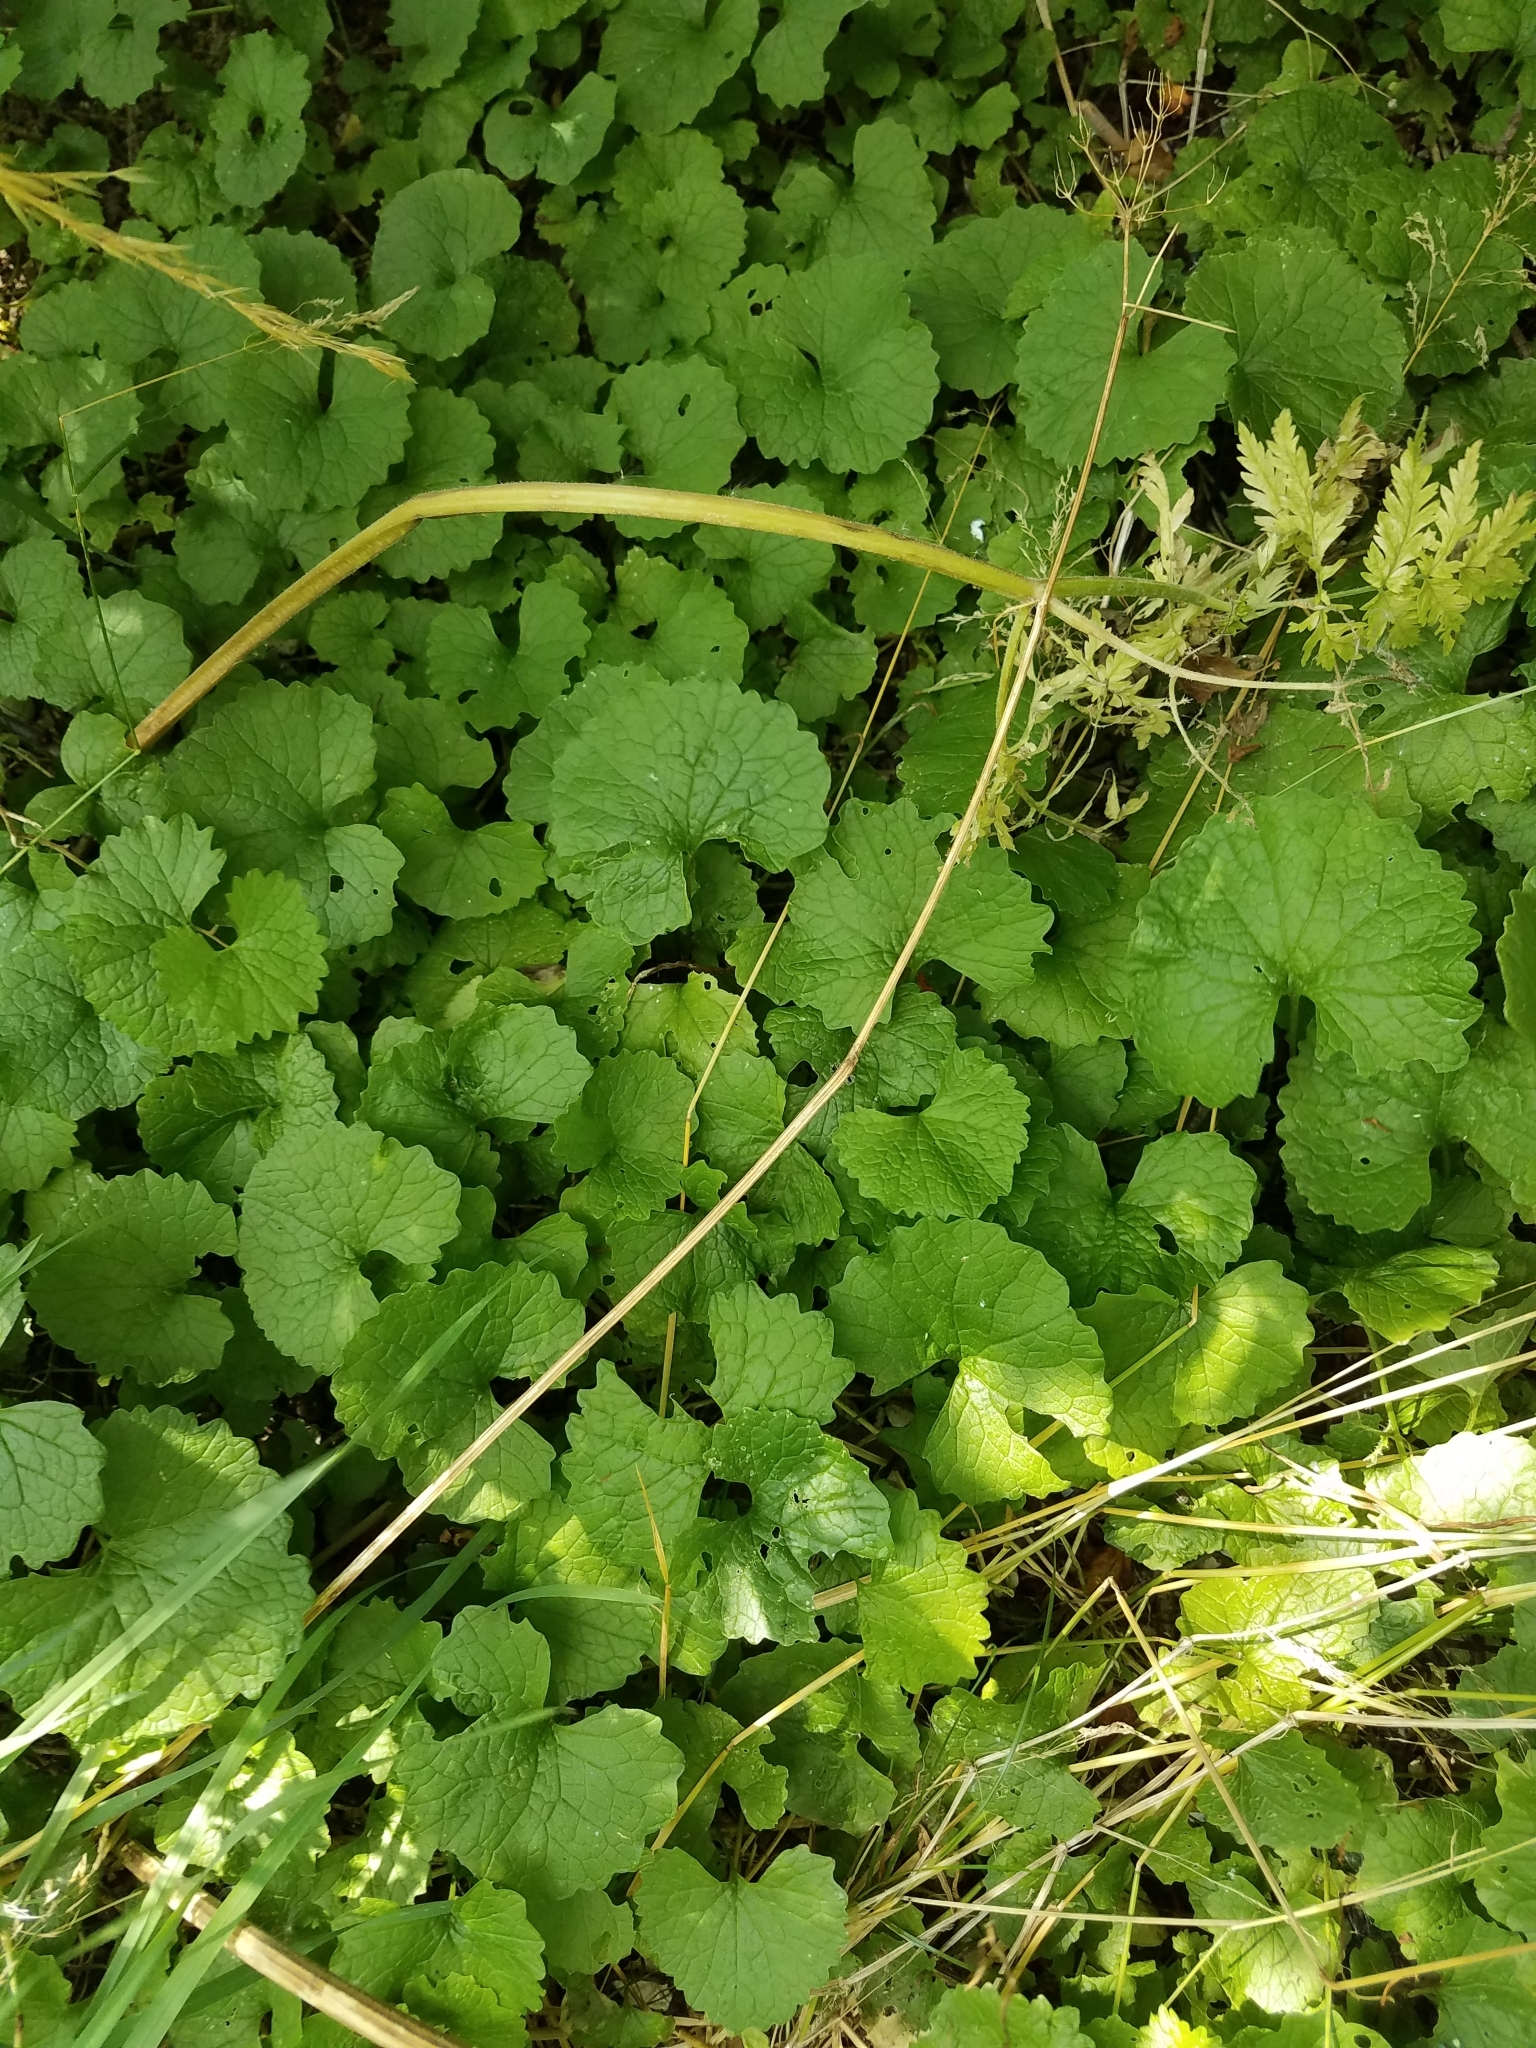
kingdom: Plantae
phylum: Tracheophyta
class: Magnoliopsida
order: Brassicales
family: Brassicaceae
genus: Alliaria
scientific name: Alliaria petiolata
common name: Garlic mustard
